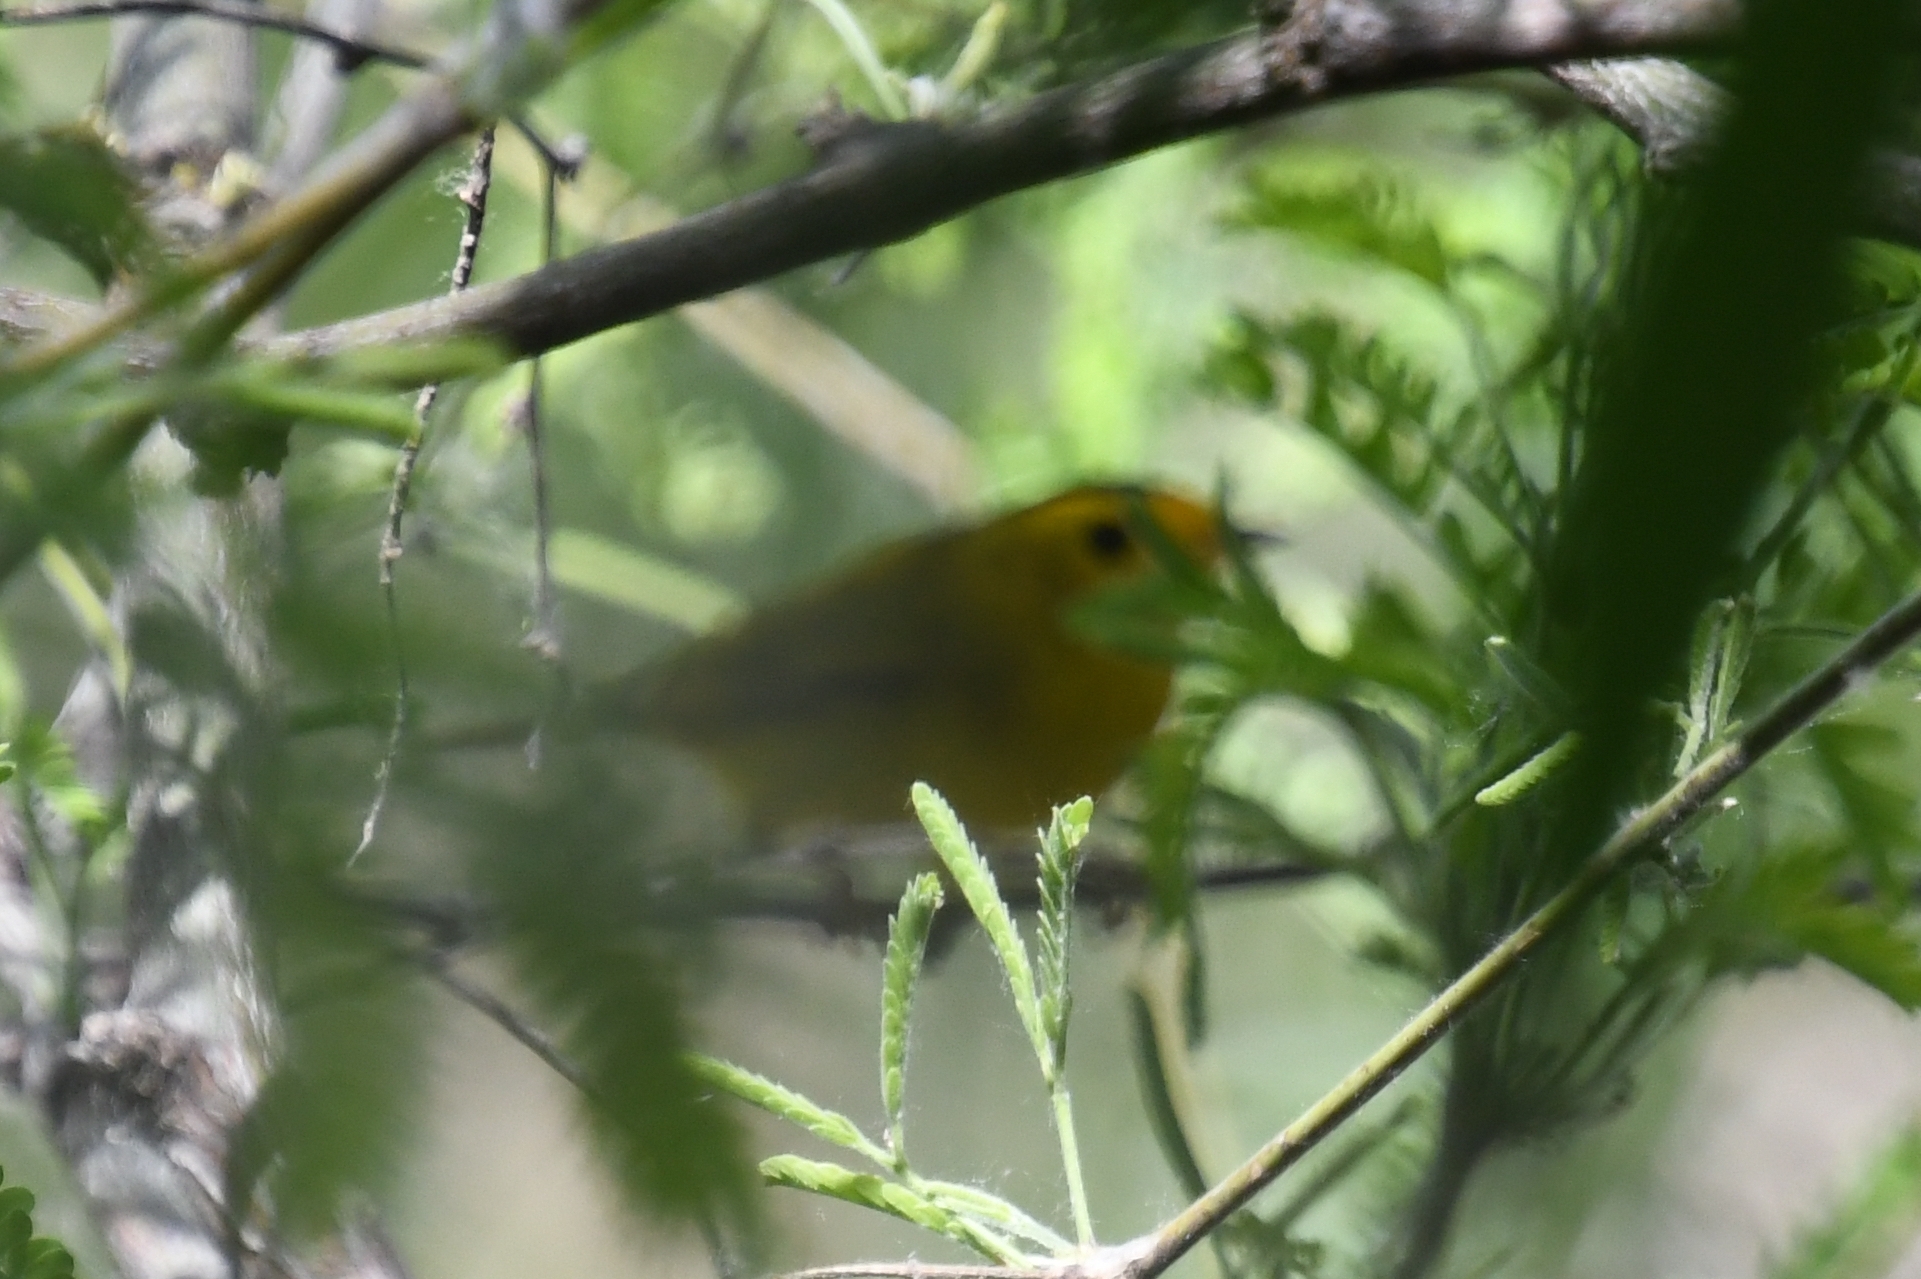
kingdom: Animalia
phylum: Chordata
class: Aves
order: Passeriformes
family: Parulidae
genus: Cardellina
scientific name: Cardellina pusilla
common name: Wilson's warbler
